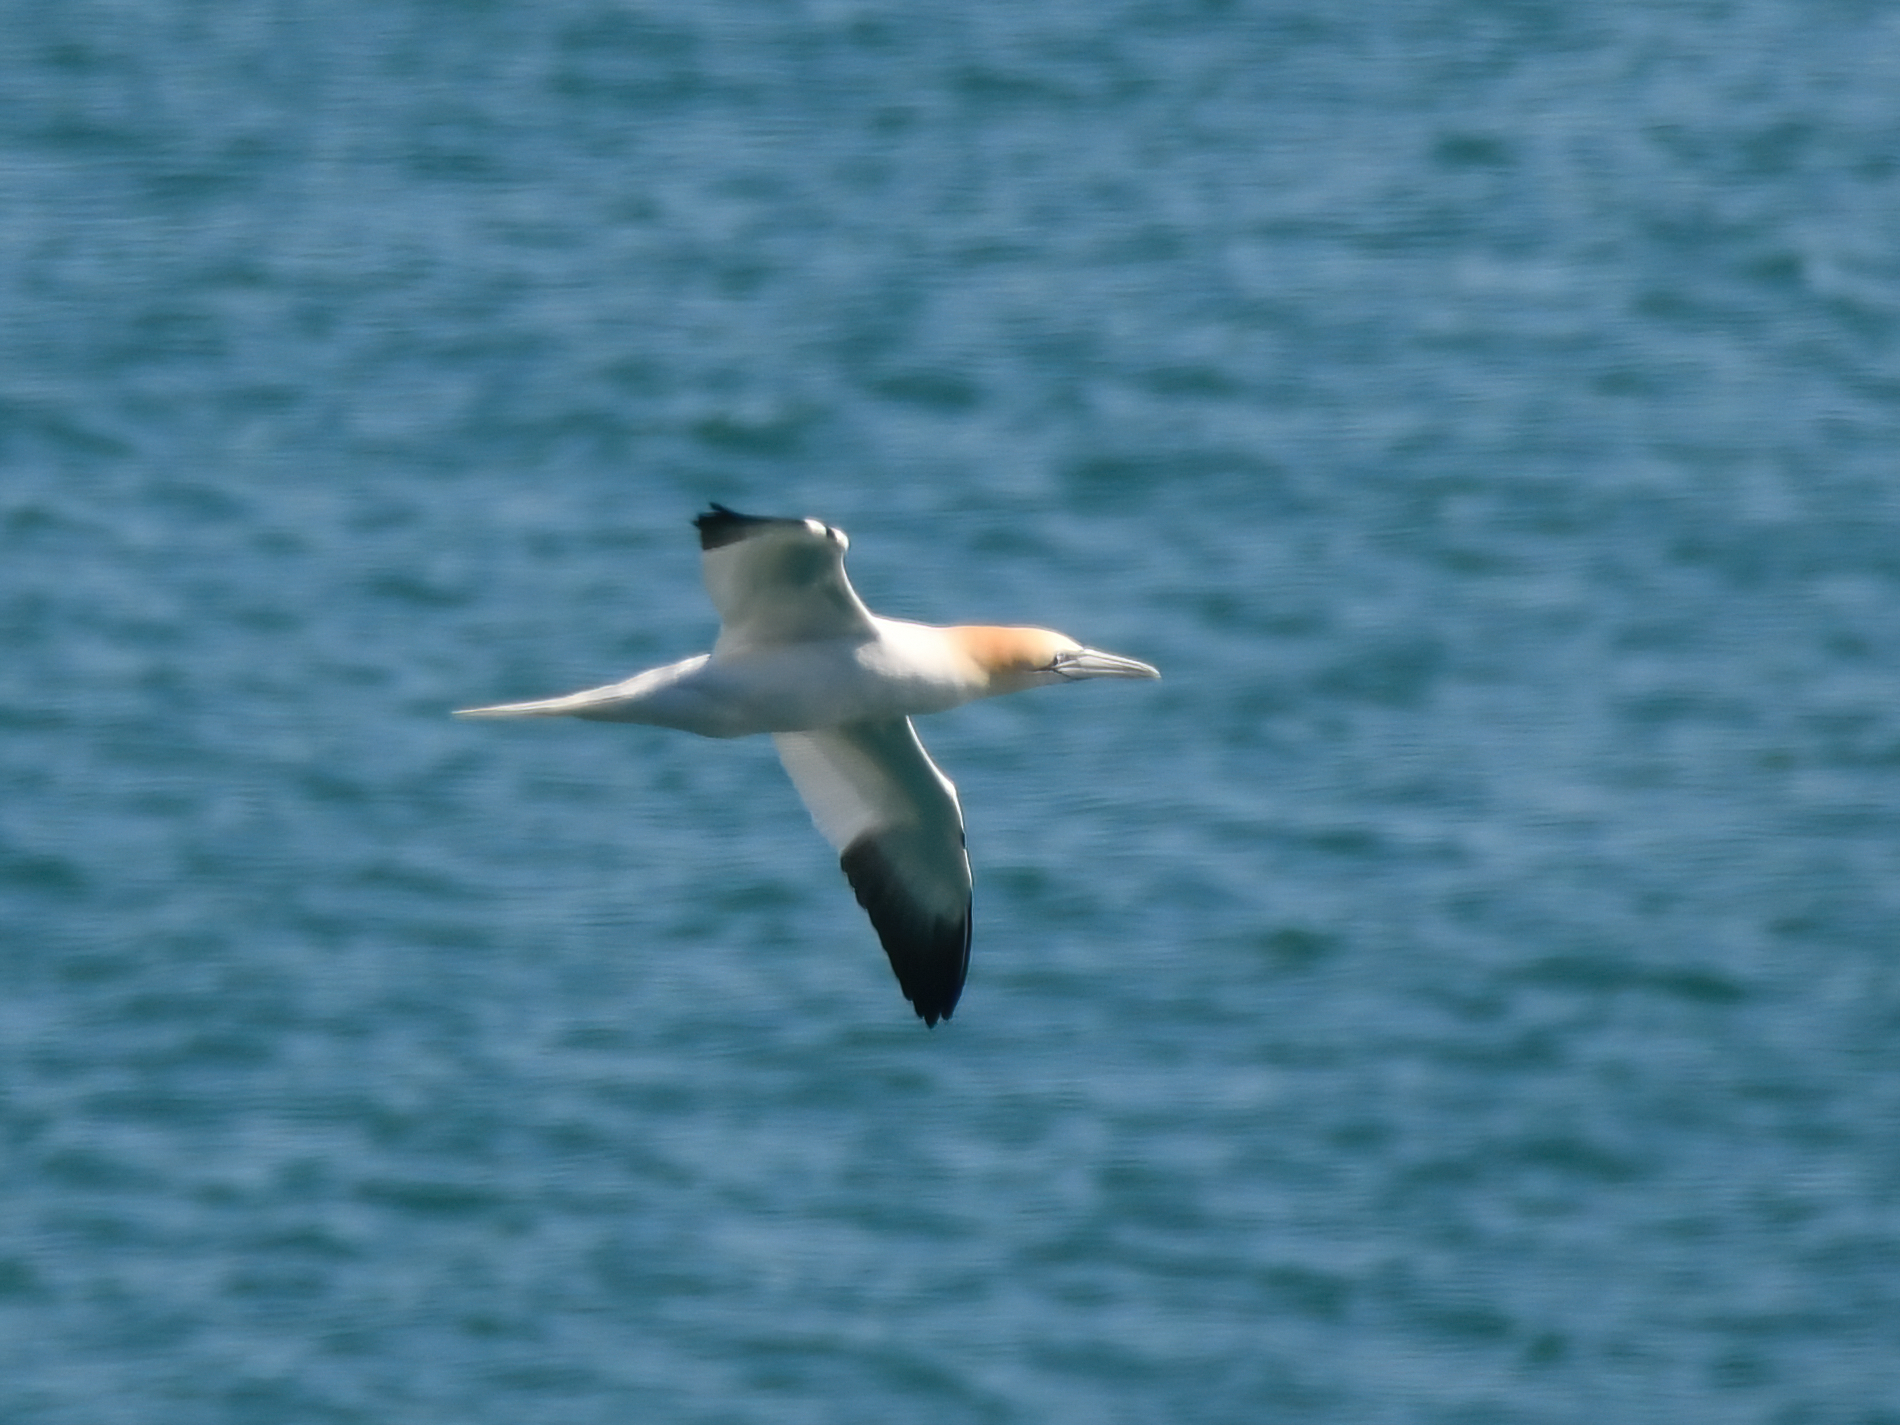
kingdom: Animalia
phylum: Chordata
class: Aves
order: Suliformes
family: Sulidae
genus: Morus
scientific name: Morus bassanus
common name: Northern gannet
